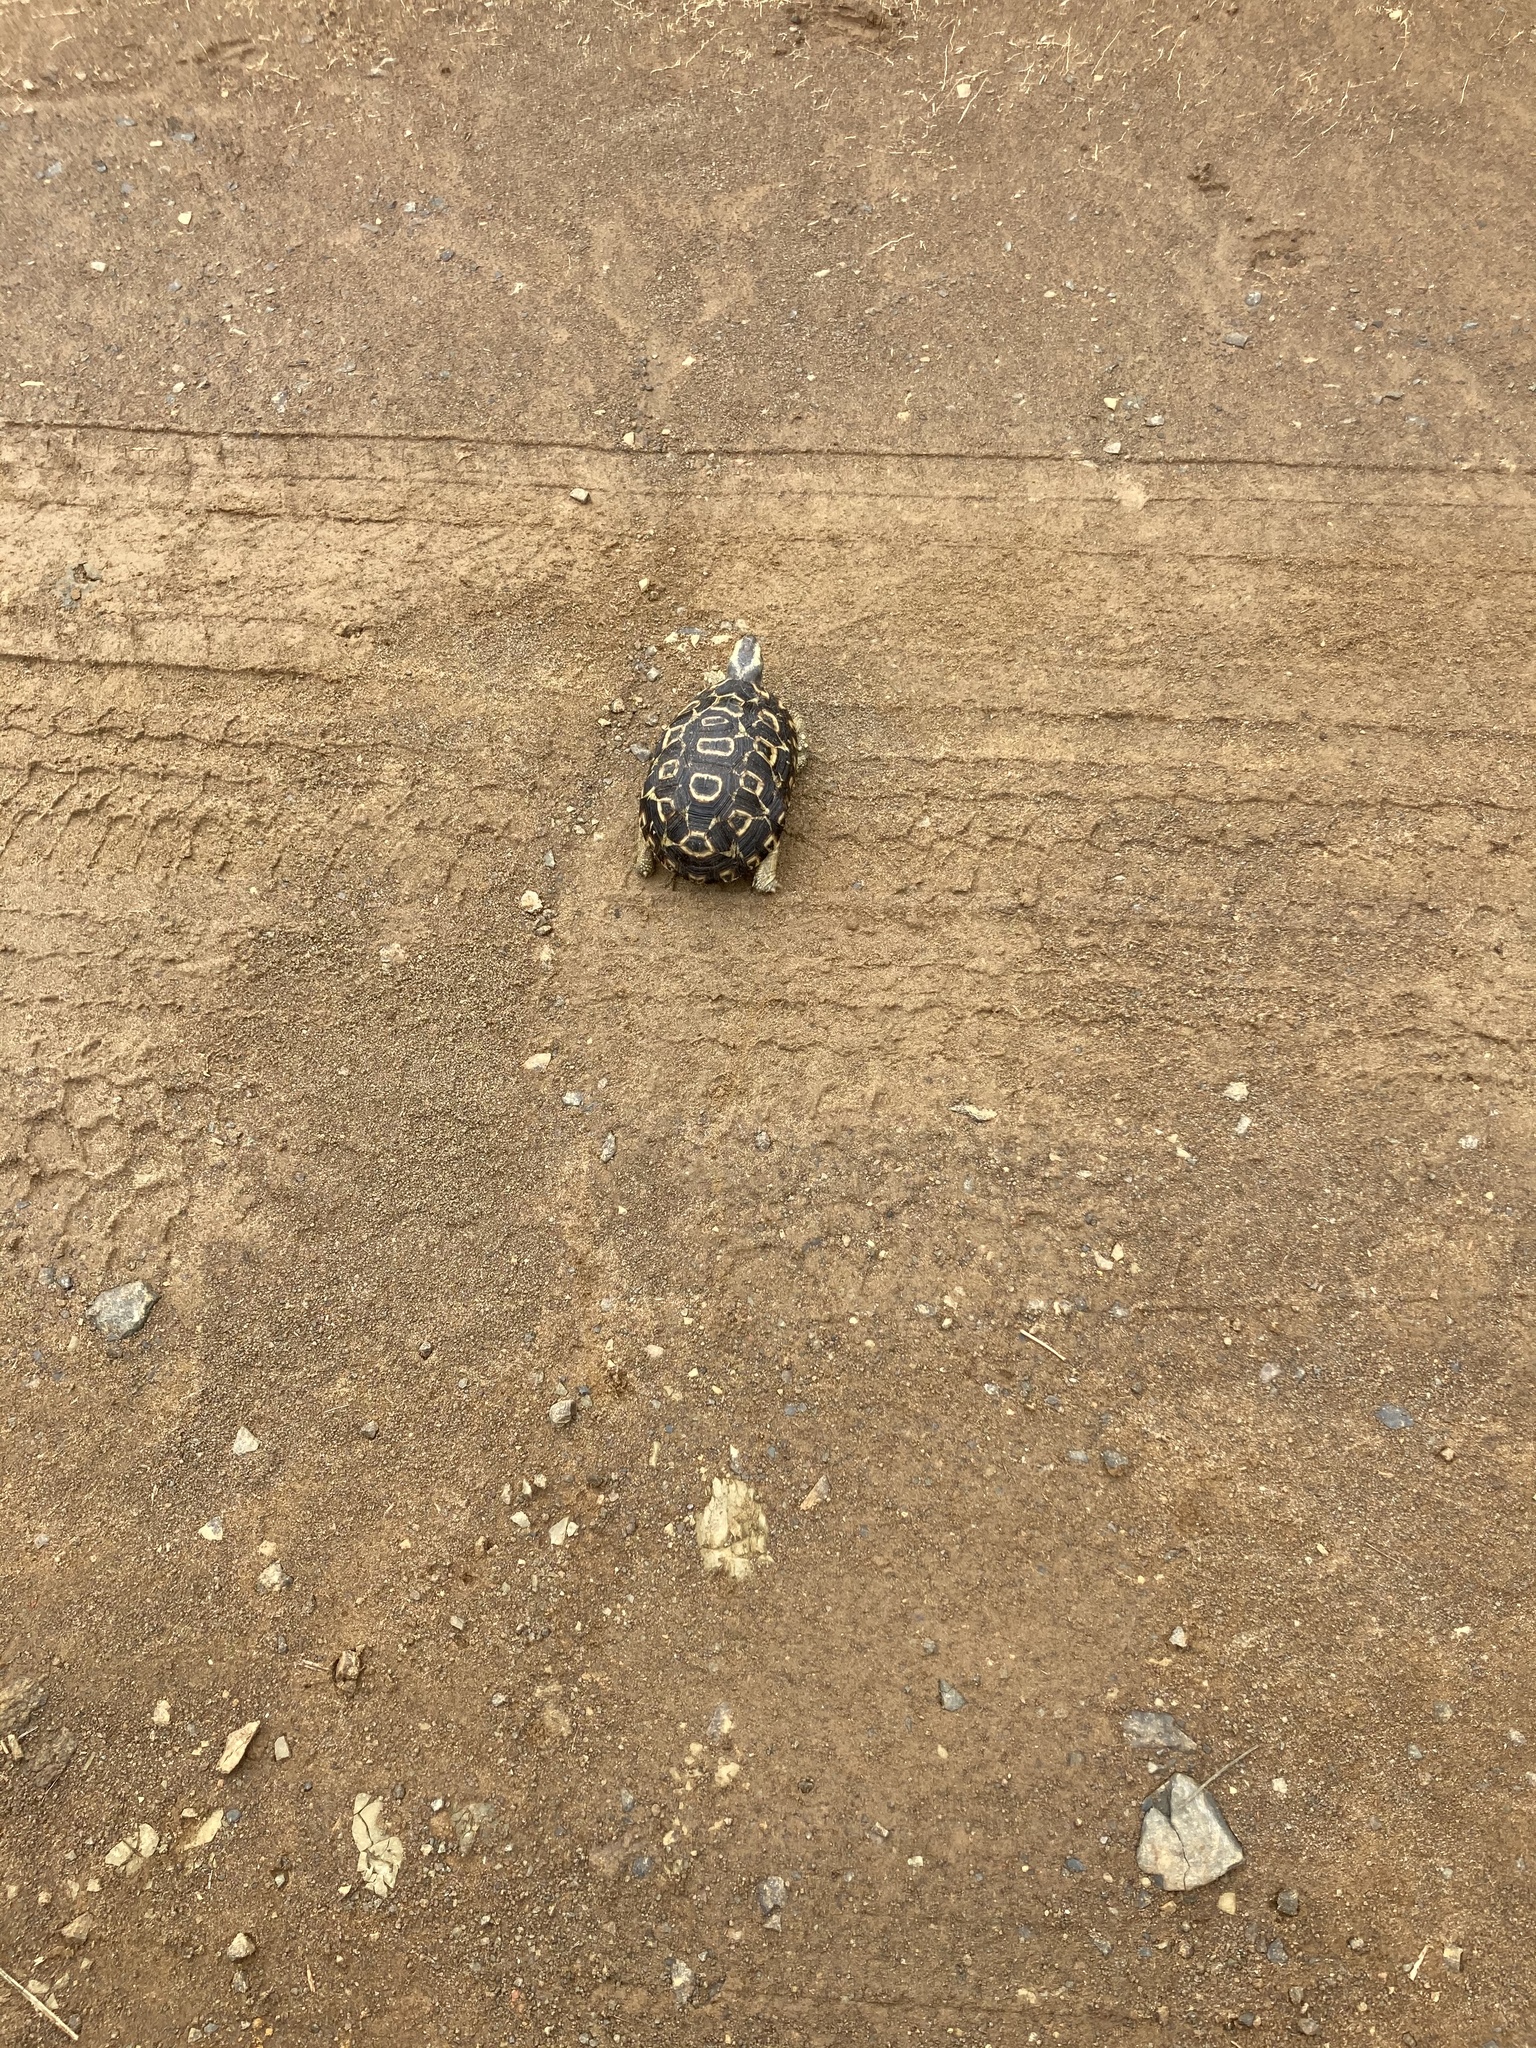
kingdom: Animalia
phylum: Chordata
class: Testudines
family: Testudinidae
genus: Kinixys
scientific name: Kinixys zombensis
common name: Southeastern hinge-back tortoise
